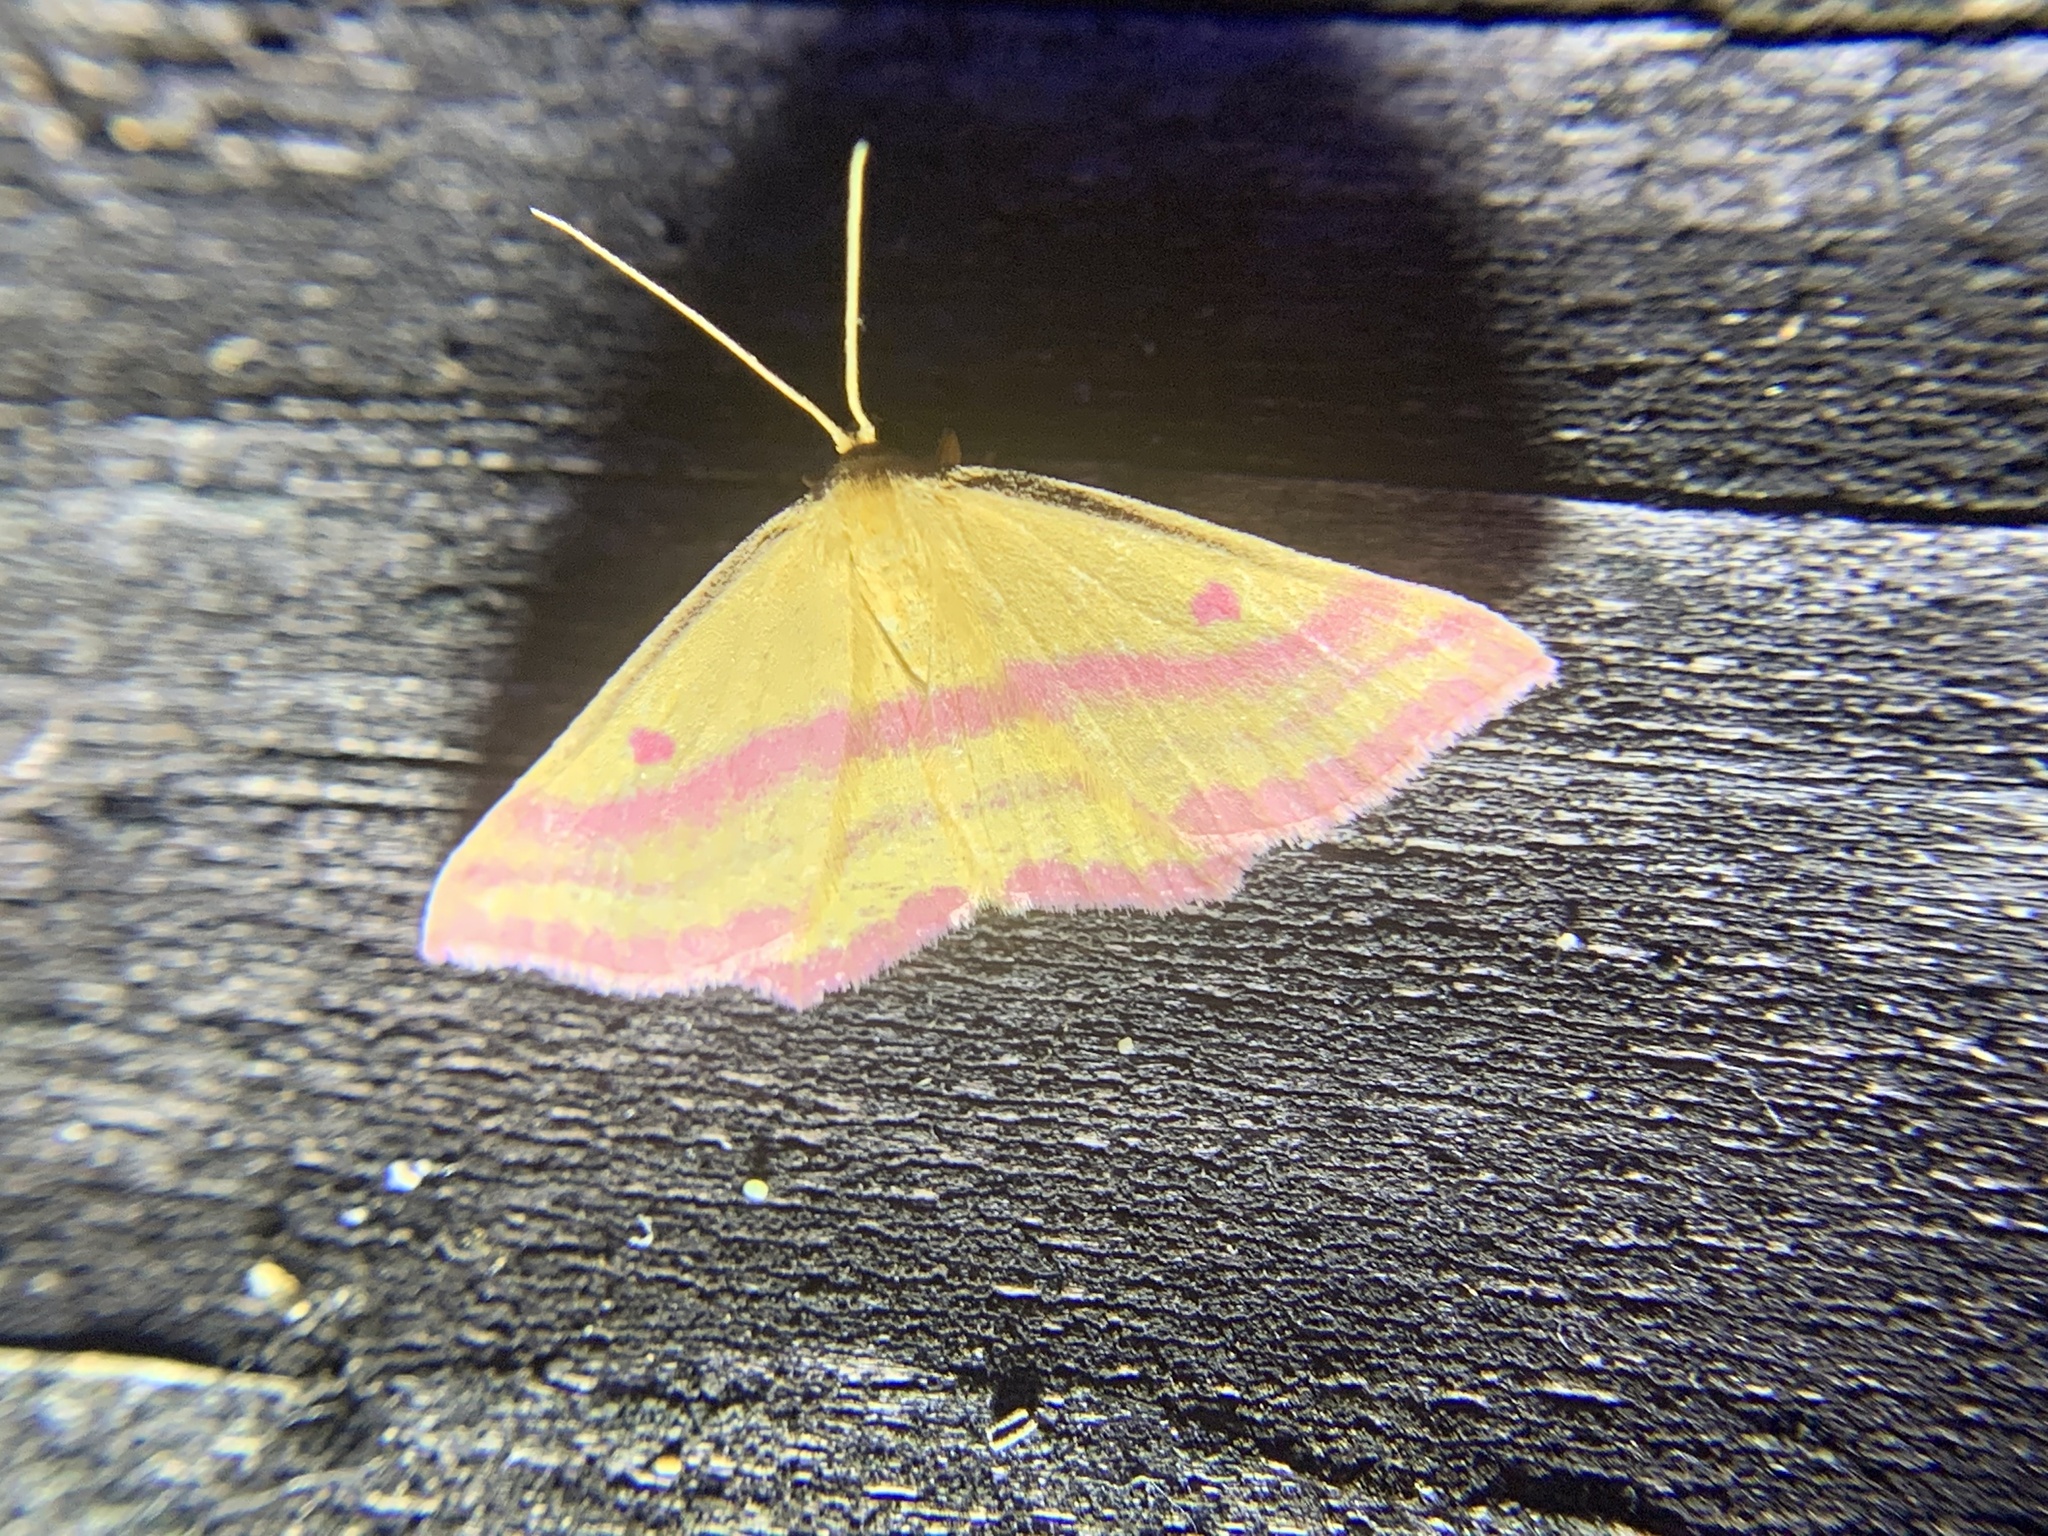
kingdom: Animalia
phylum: Arthropoda
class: Insecta
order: Lepidoptera
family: Geometridae
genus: Haematopis
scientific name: Haematopis grataria
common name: Chickweed geometer
